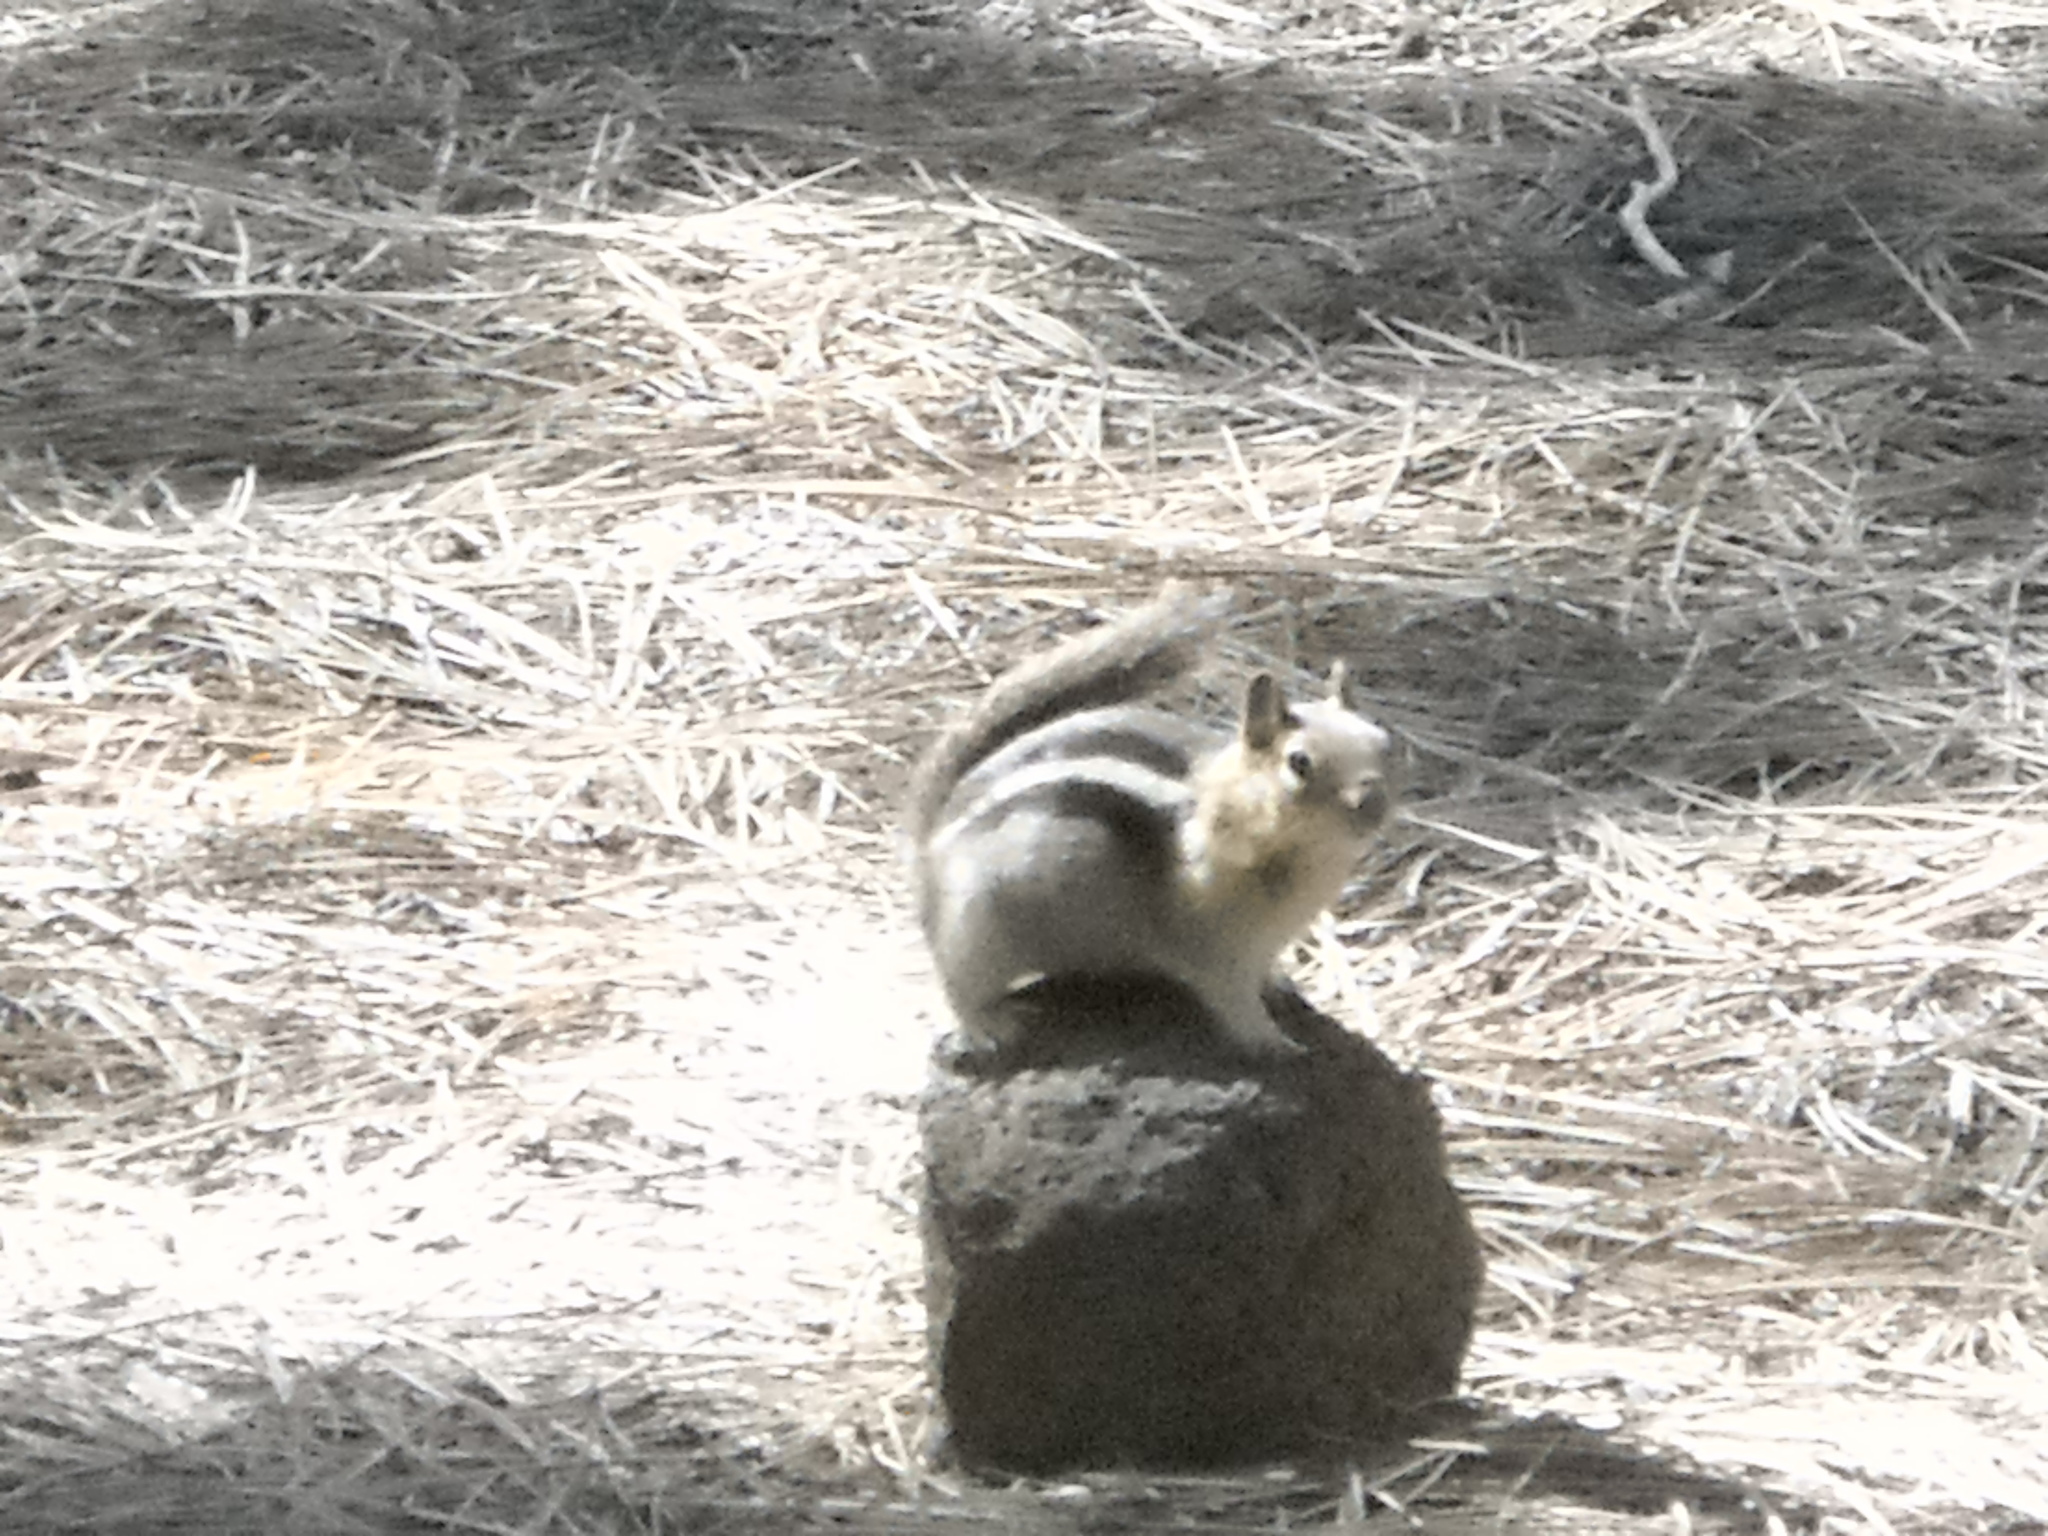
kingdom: Animalia
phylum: Chordata
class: Mammalia
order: Rodentia
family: Sciuridae
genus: Callospermophilus
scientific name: Callospermophilus lateralis
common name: Golden-mantled ground squirrel
